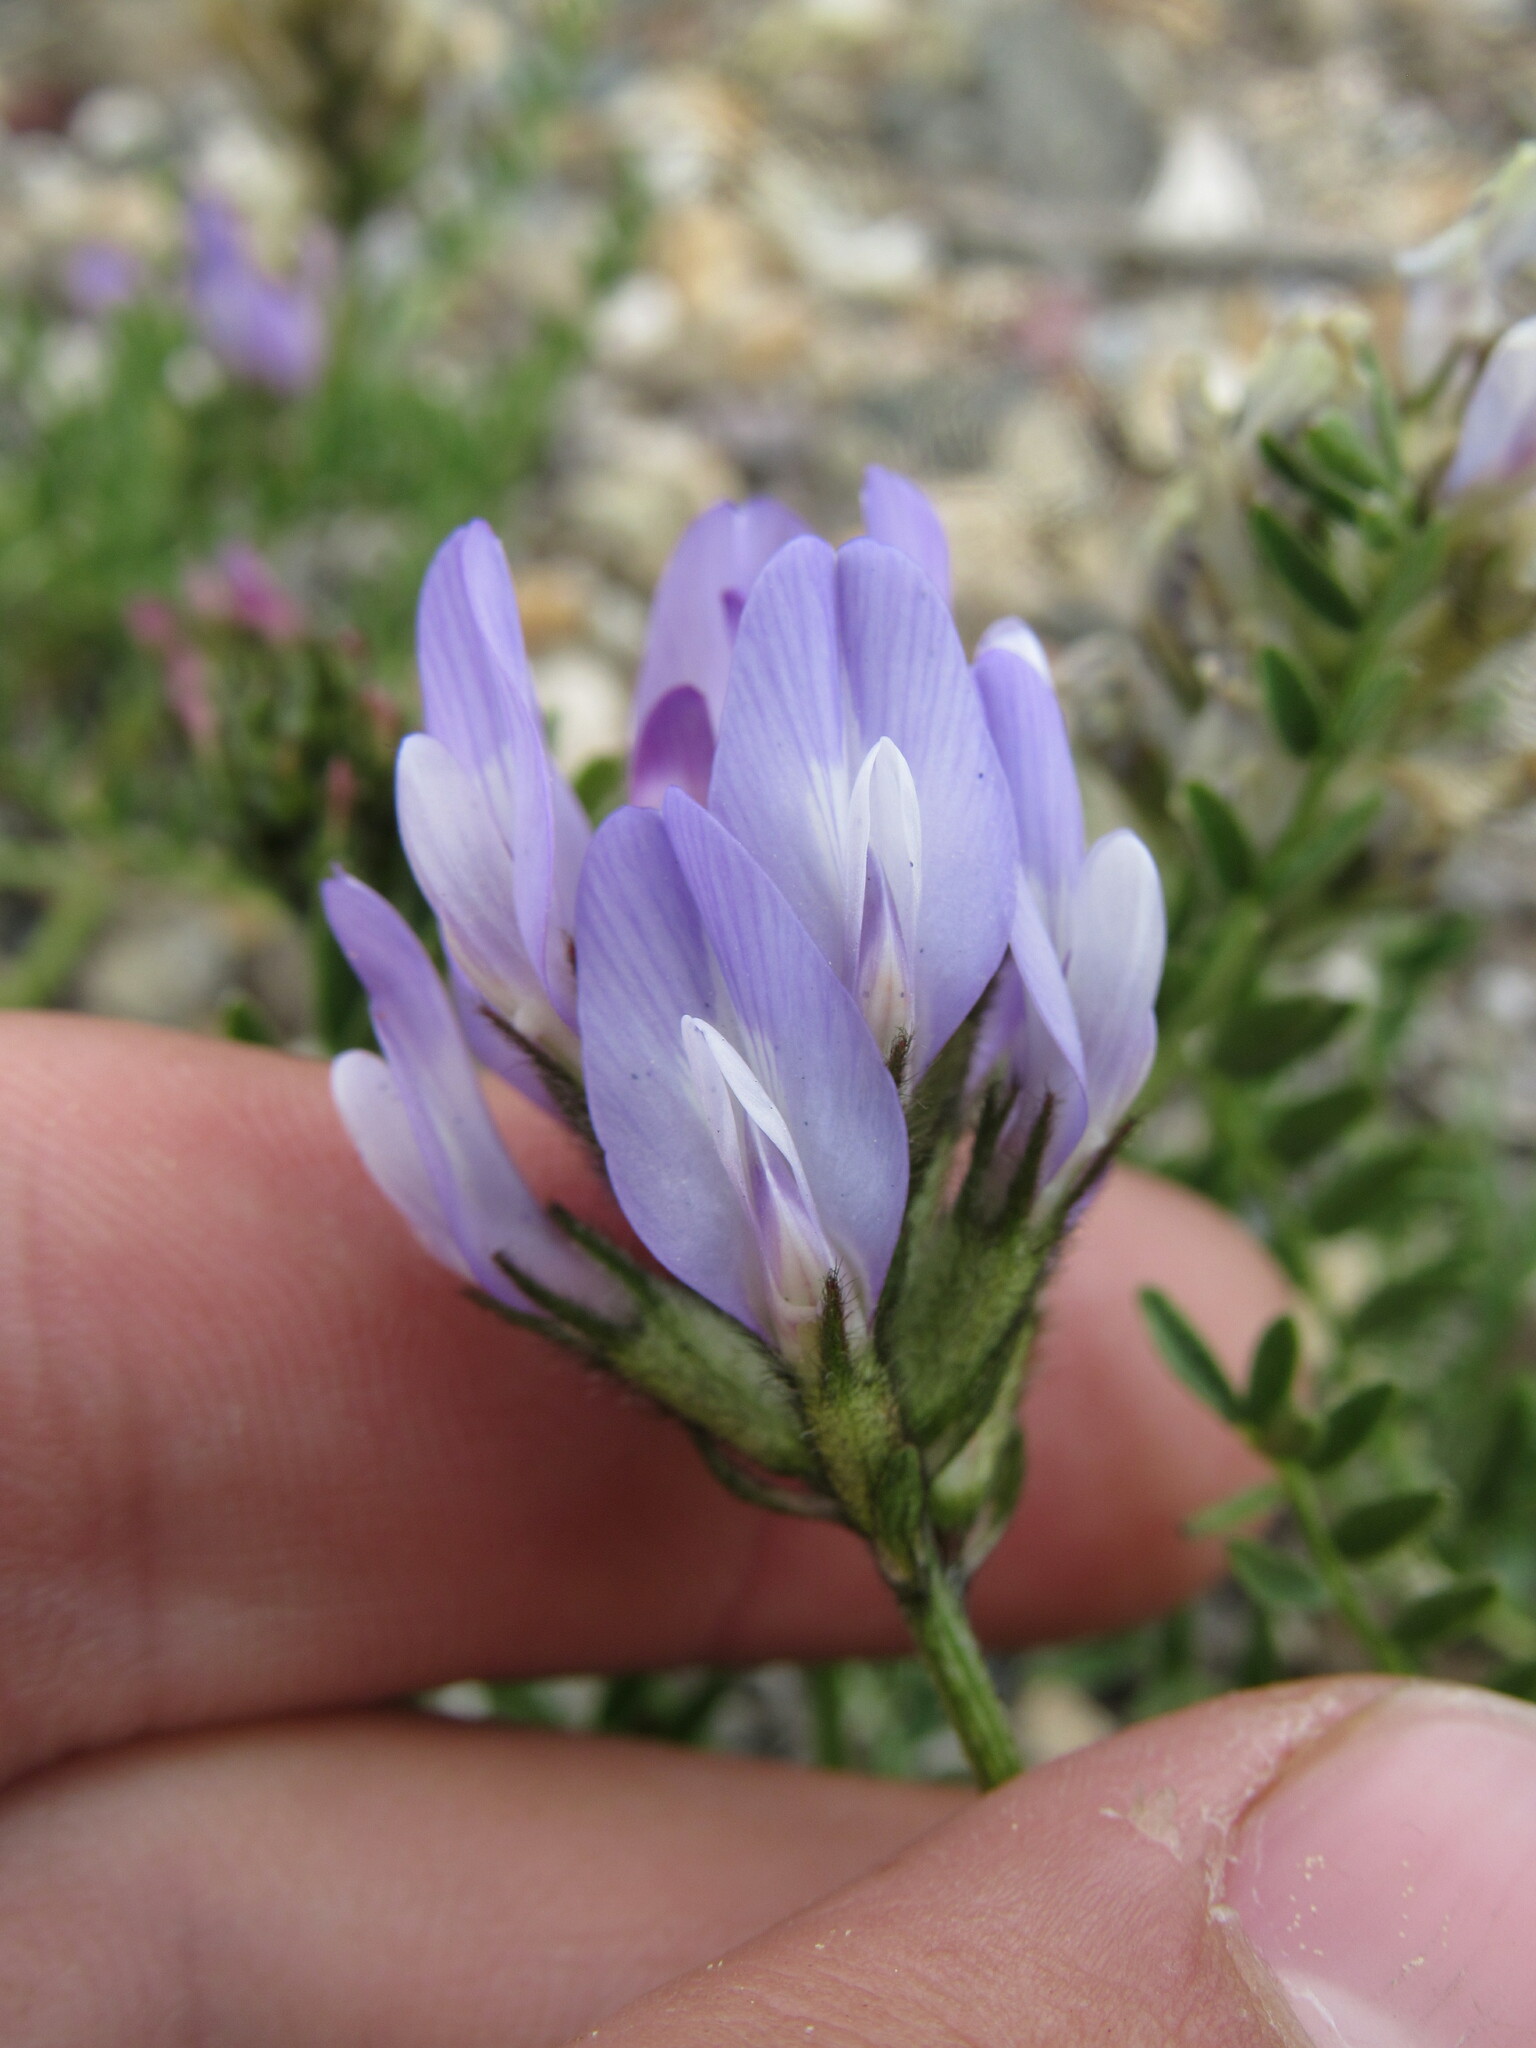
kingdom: Plantae
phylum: Tracheophyta
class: Magnoliopsida
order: Fabales
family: Fabaceae
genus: Astragalus
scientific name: Astragalus agrestis
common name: Field milk-vetch
